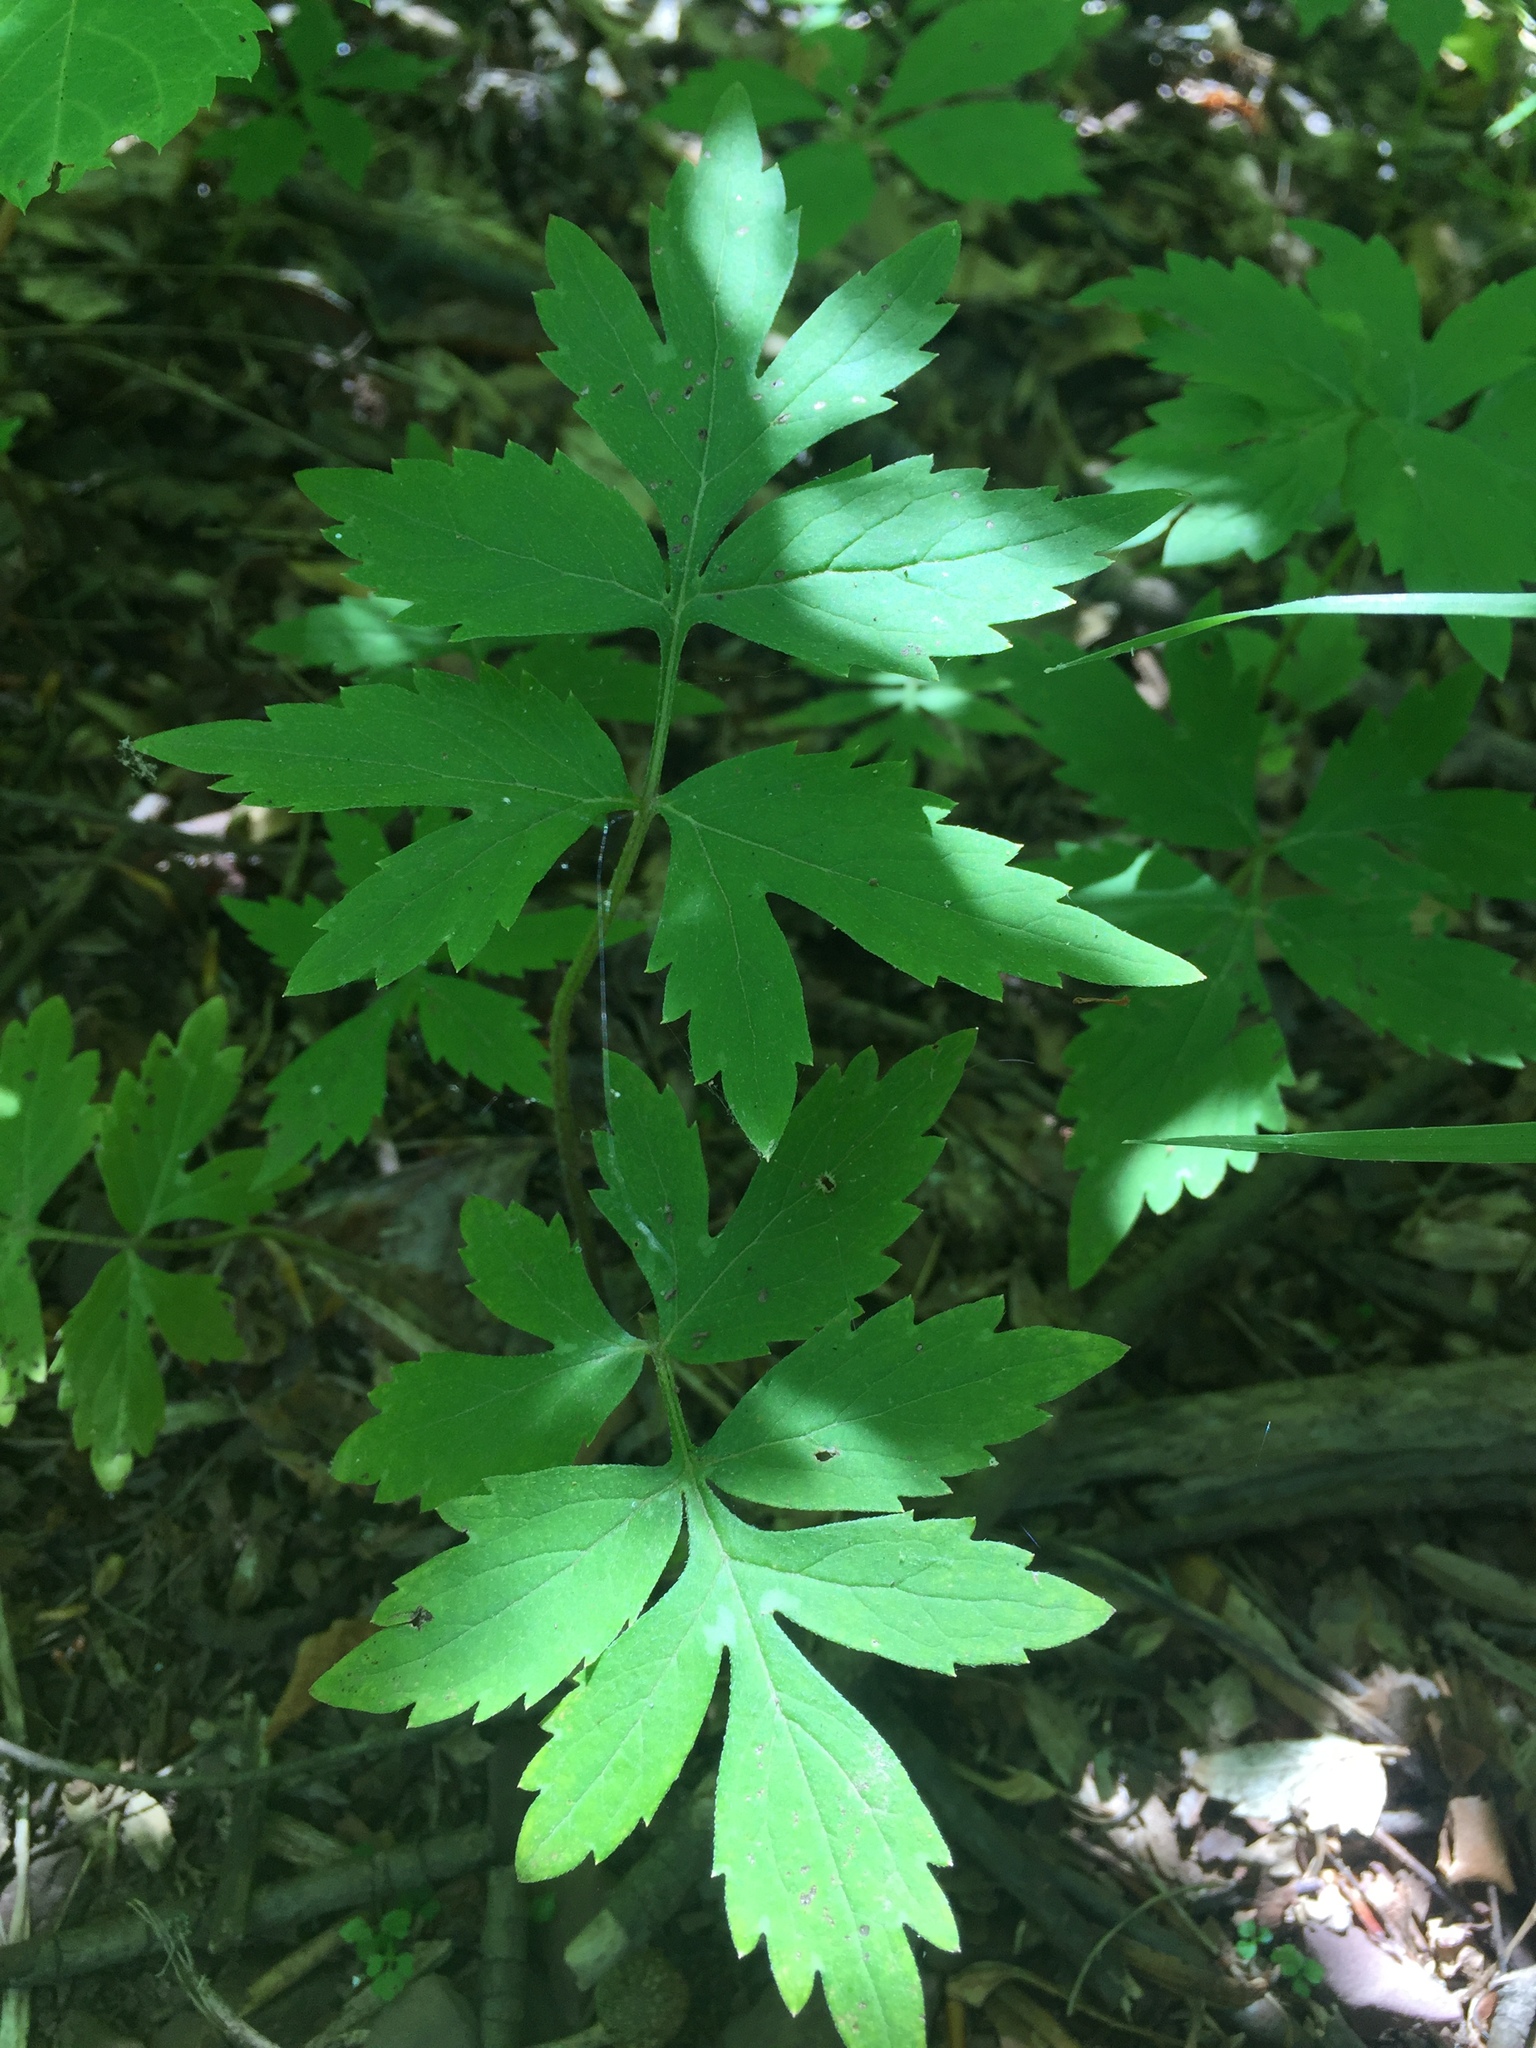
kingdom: Plantae
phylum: Tracheophyta
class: Magnoliopsida
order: Boraginales
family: Hydrophyllaceae
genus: Hydrophyllum
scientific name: Hydrophyllum virginianum
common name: Virginia waterleaf
